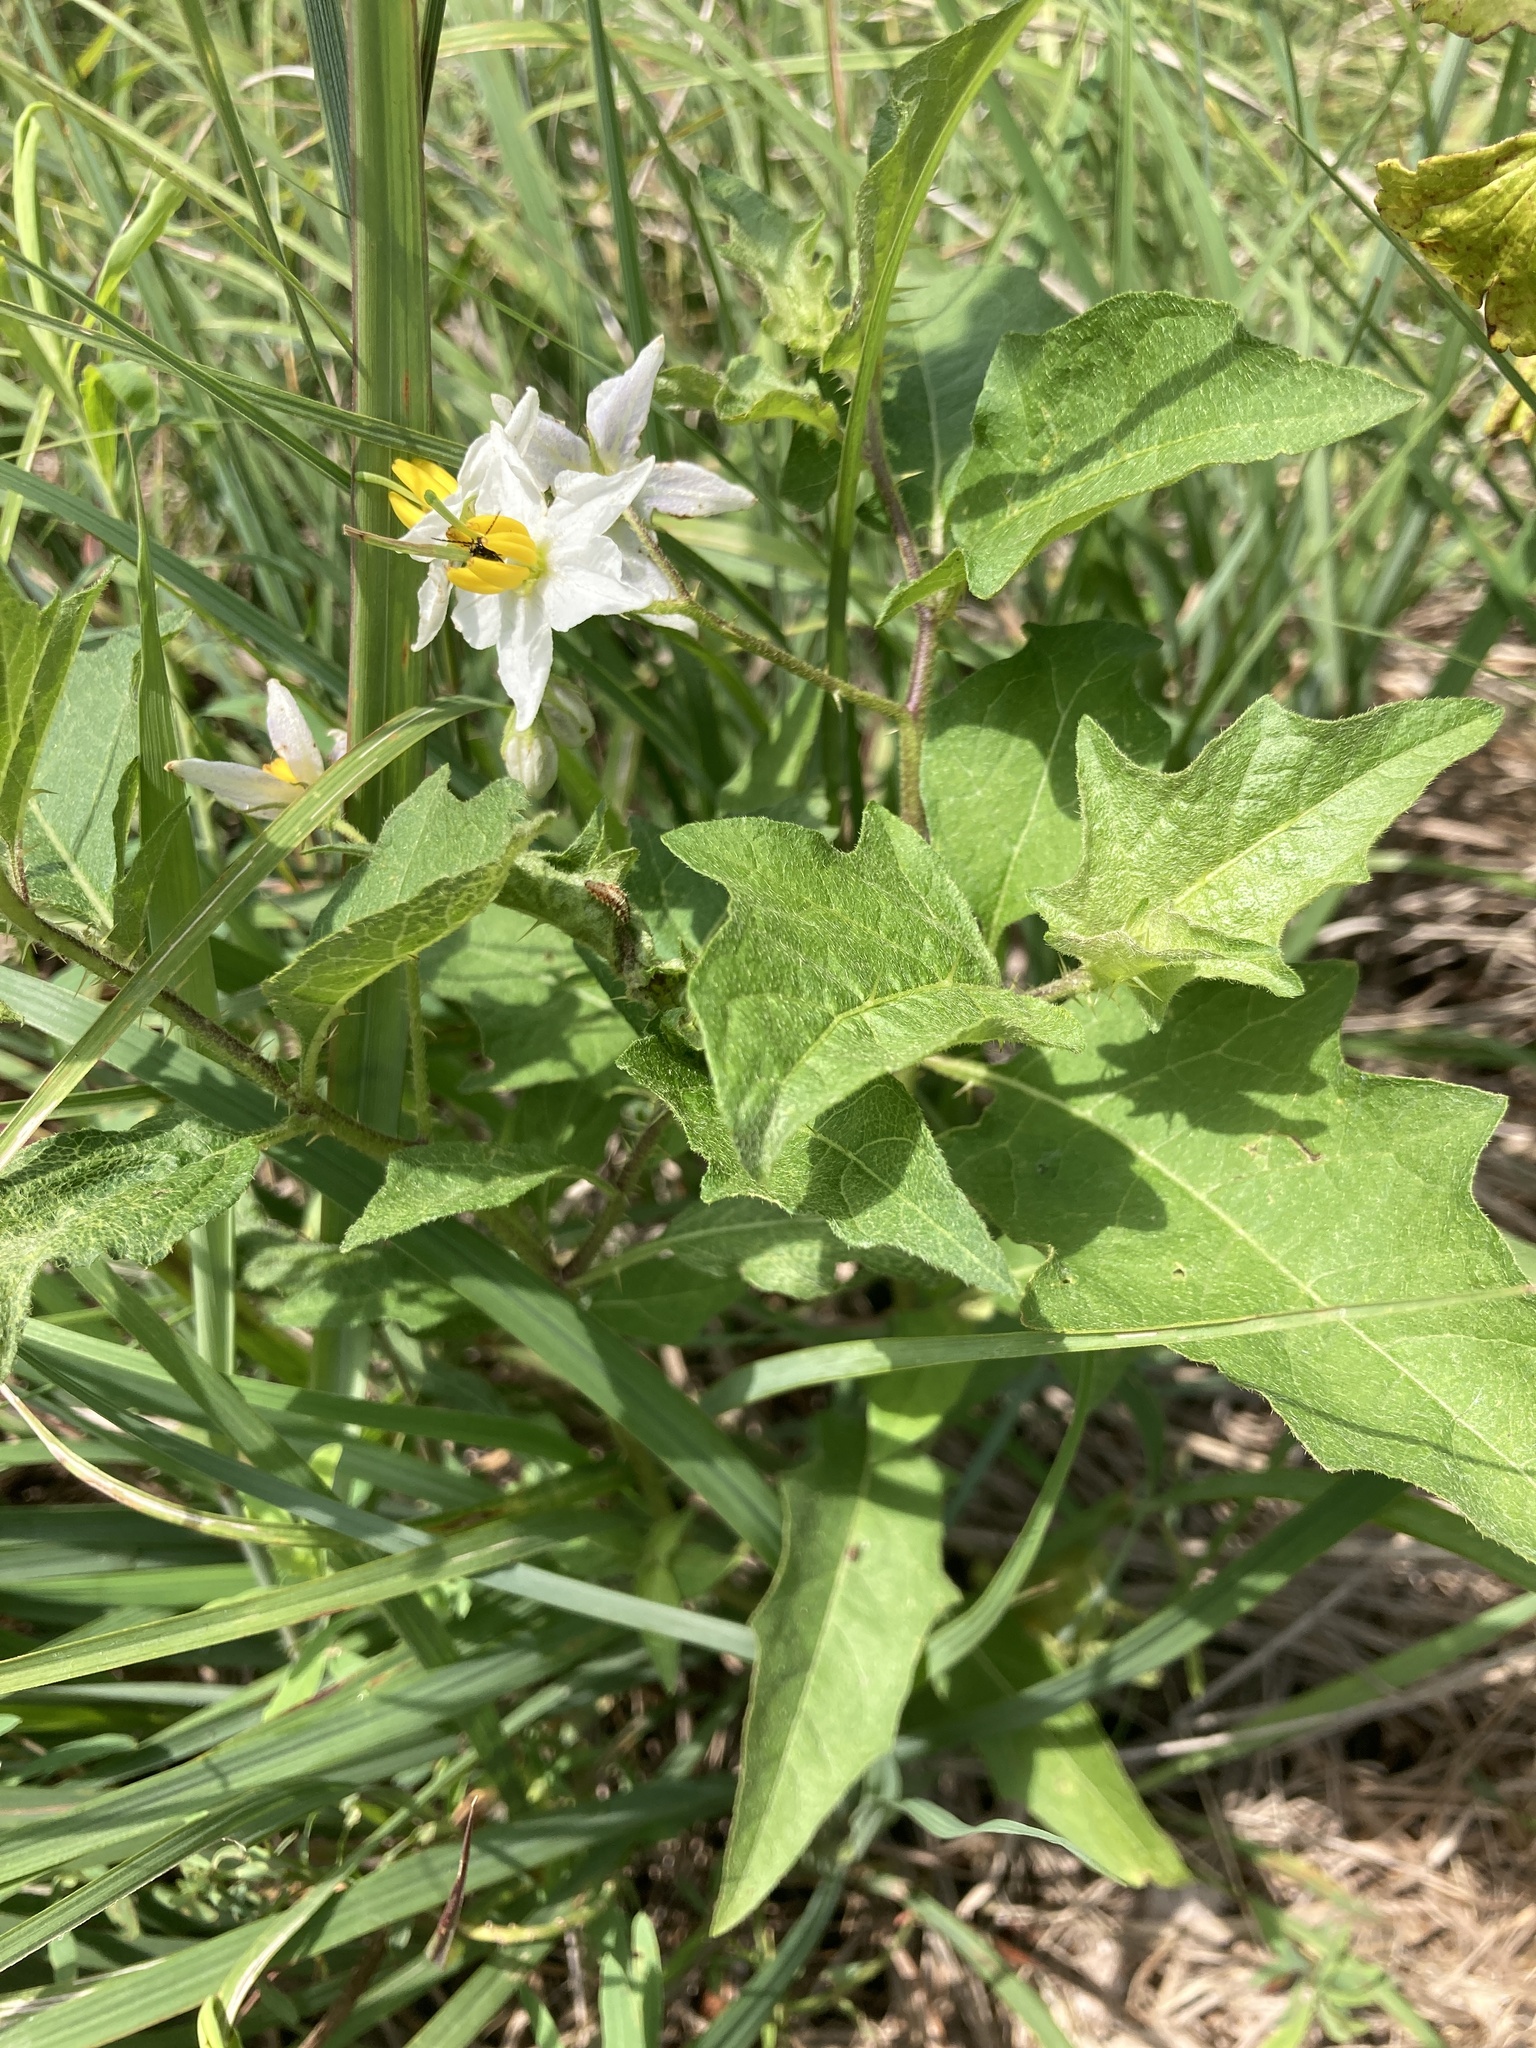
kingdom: Plantae
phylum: Tracheophyta
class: Magnoliopsida
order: Solanales
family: Solanaceae
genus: Solanum
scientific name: Solanum carolinense
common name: Horse-nettle
